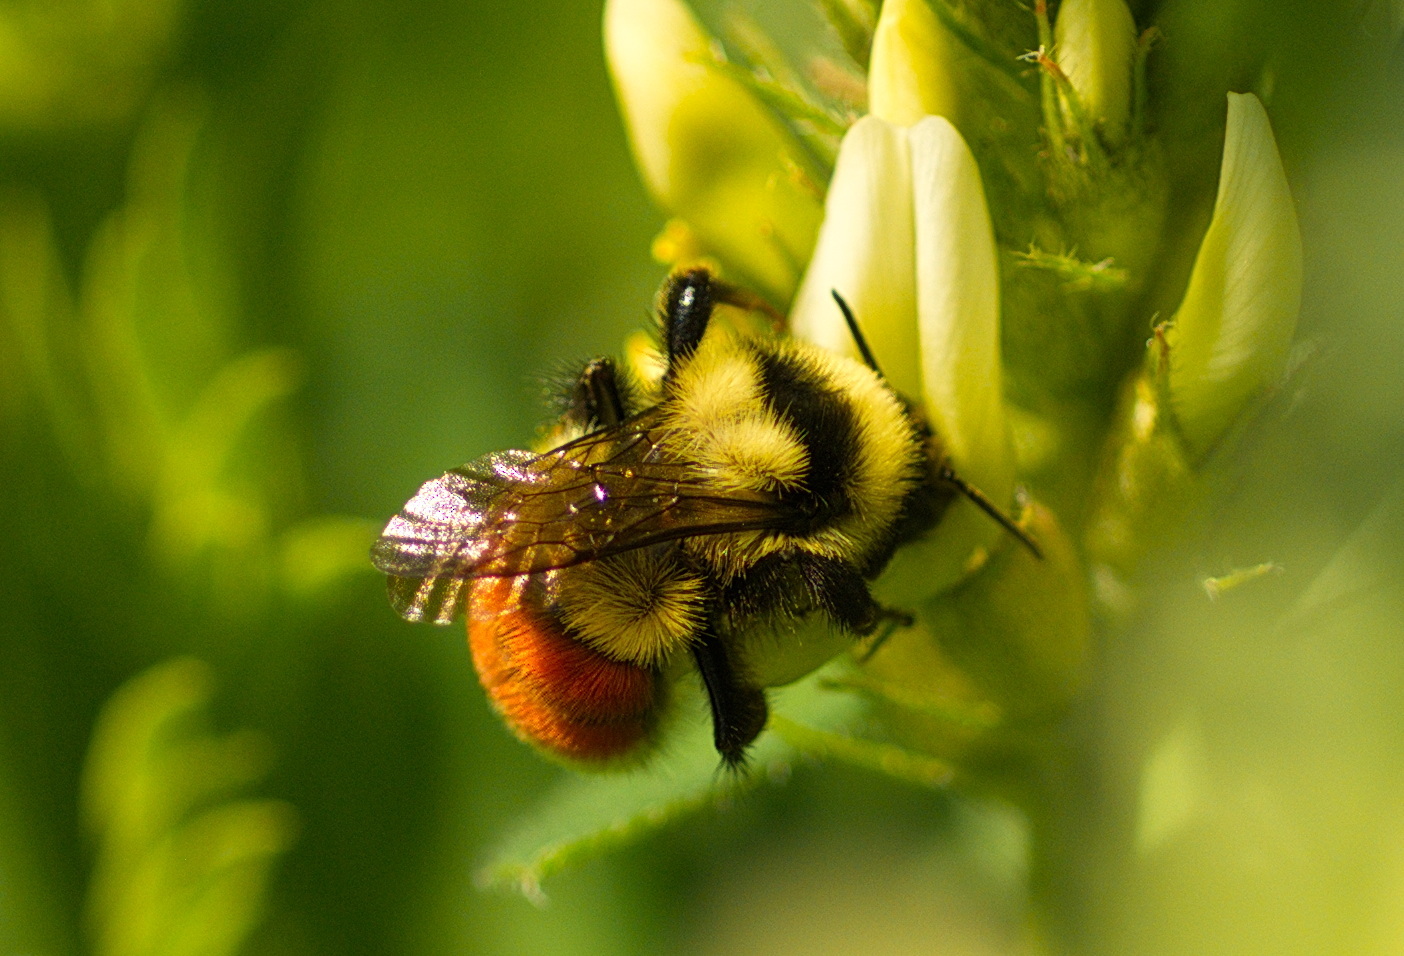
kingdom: Animalia
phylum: Arthropoda
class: Insecta
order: Hymenoptera
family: Apidae
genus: Bombus
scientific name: Bombus huntii
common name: Hunt bumble bee
